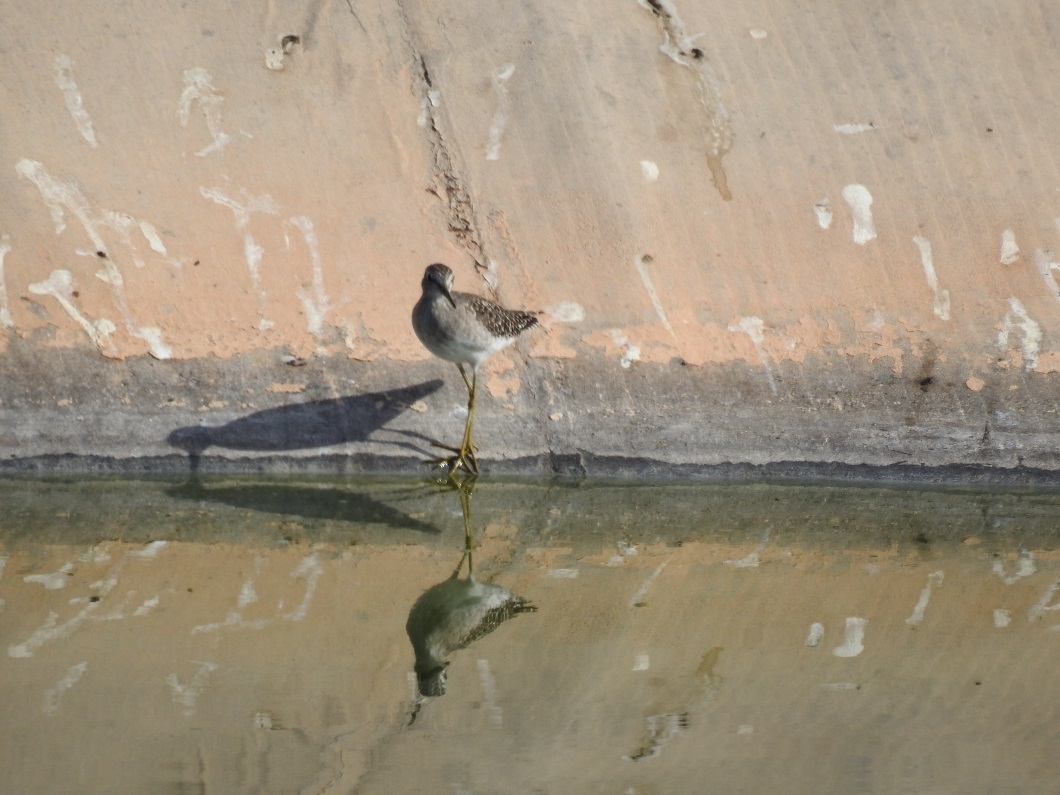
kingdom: Animalia
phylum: Chordata
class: Aves
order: Charadriiformes
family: Scolopacidae
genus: Tringa
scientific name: Tringa glareola
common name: Wood sandpiper
